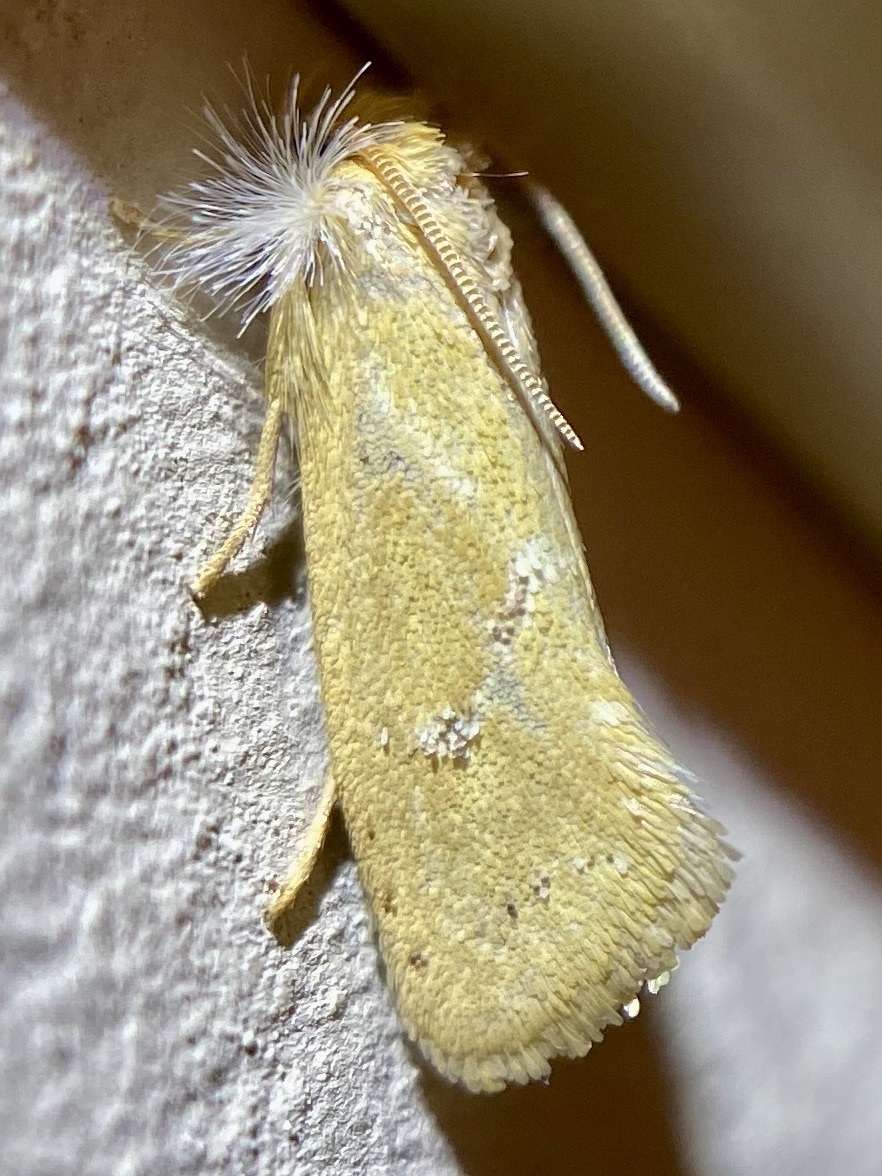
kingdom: Animalia
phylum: Arthropoda
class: Insecta
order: Lepidoptera
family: Tineidae
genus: Acrolophus
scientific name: Acrolophus laticapitana
